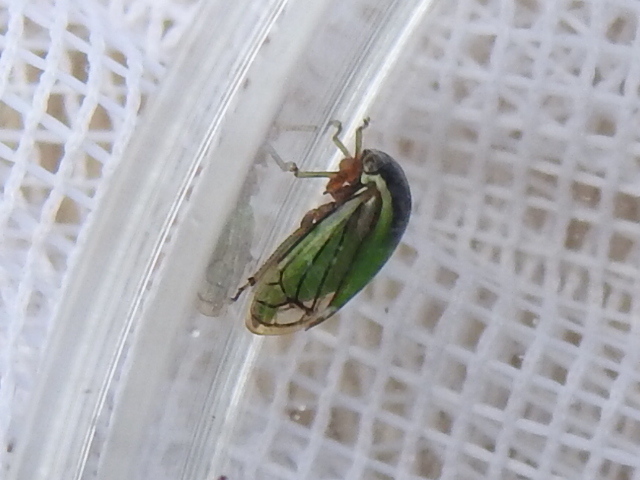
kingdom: Animalia
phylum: Arthropoda
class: Insecta
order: Hemiptera
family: Membracidae
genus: Acutalis
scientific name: Acutalis tartarea
